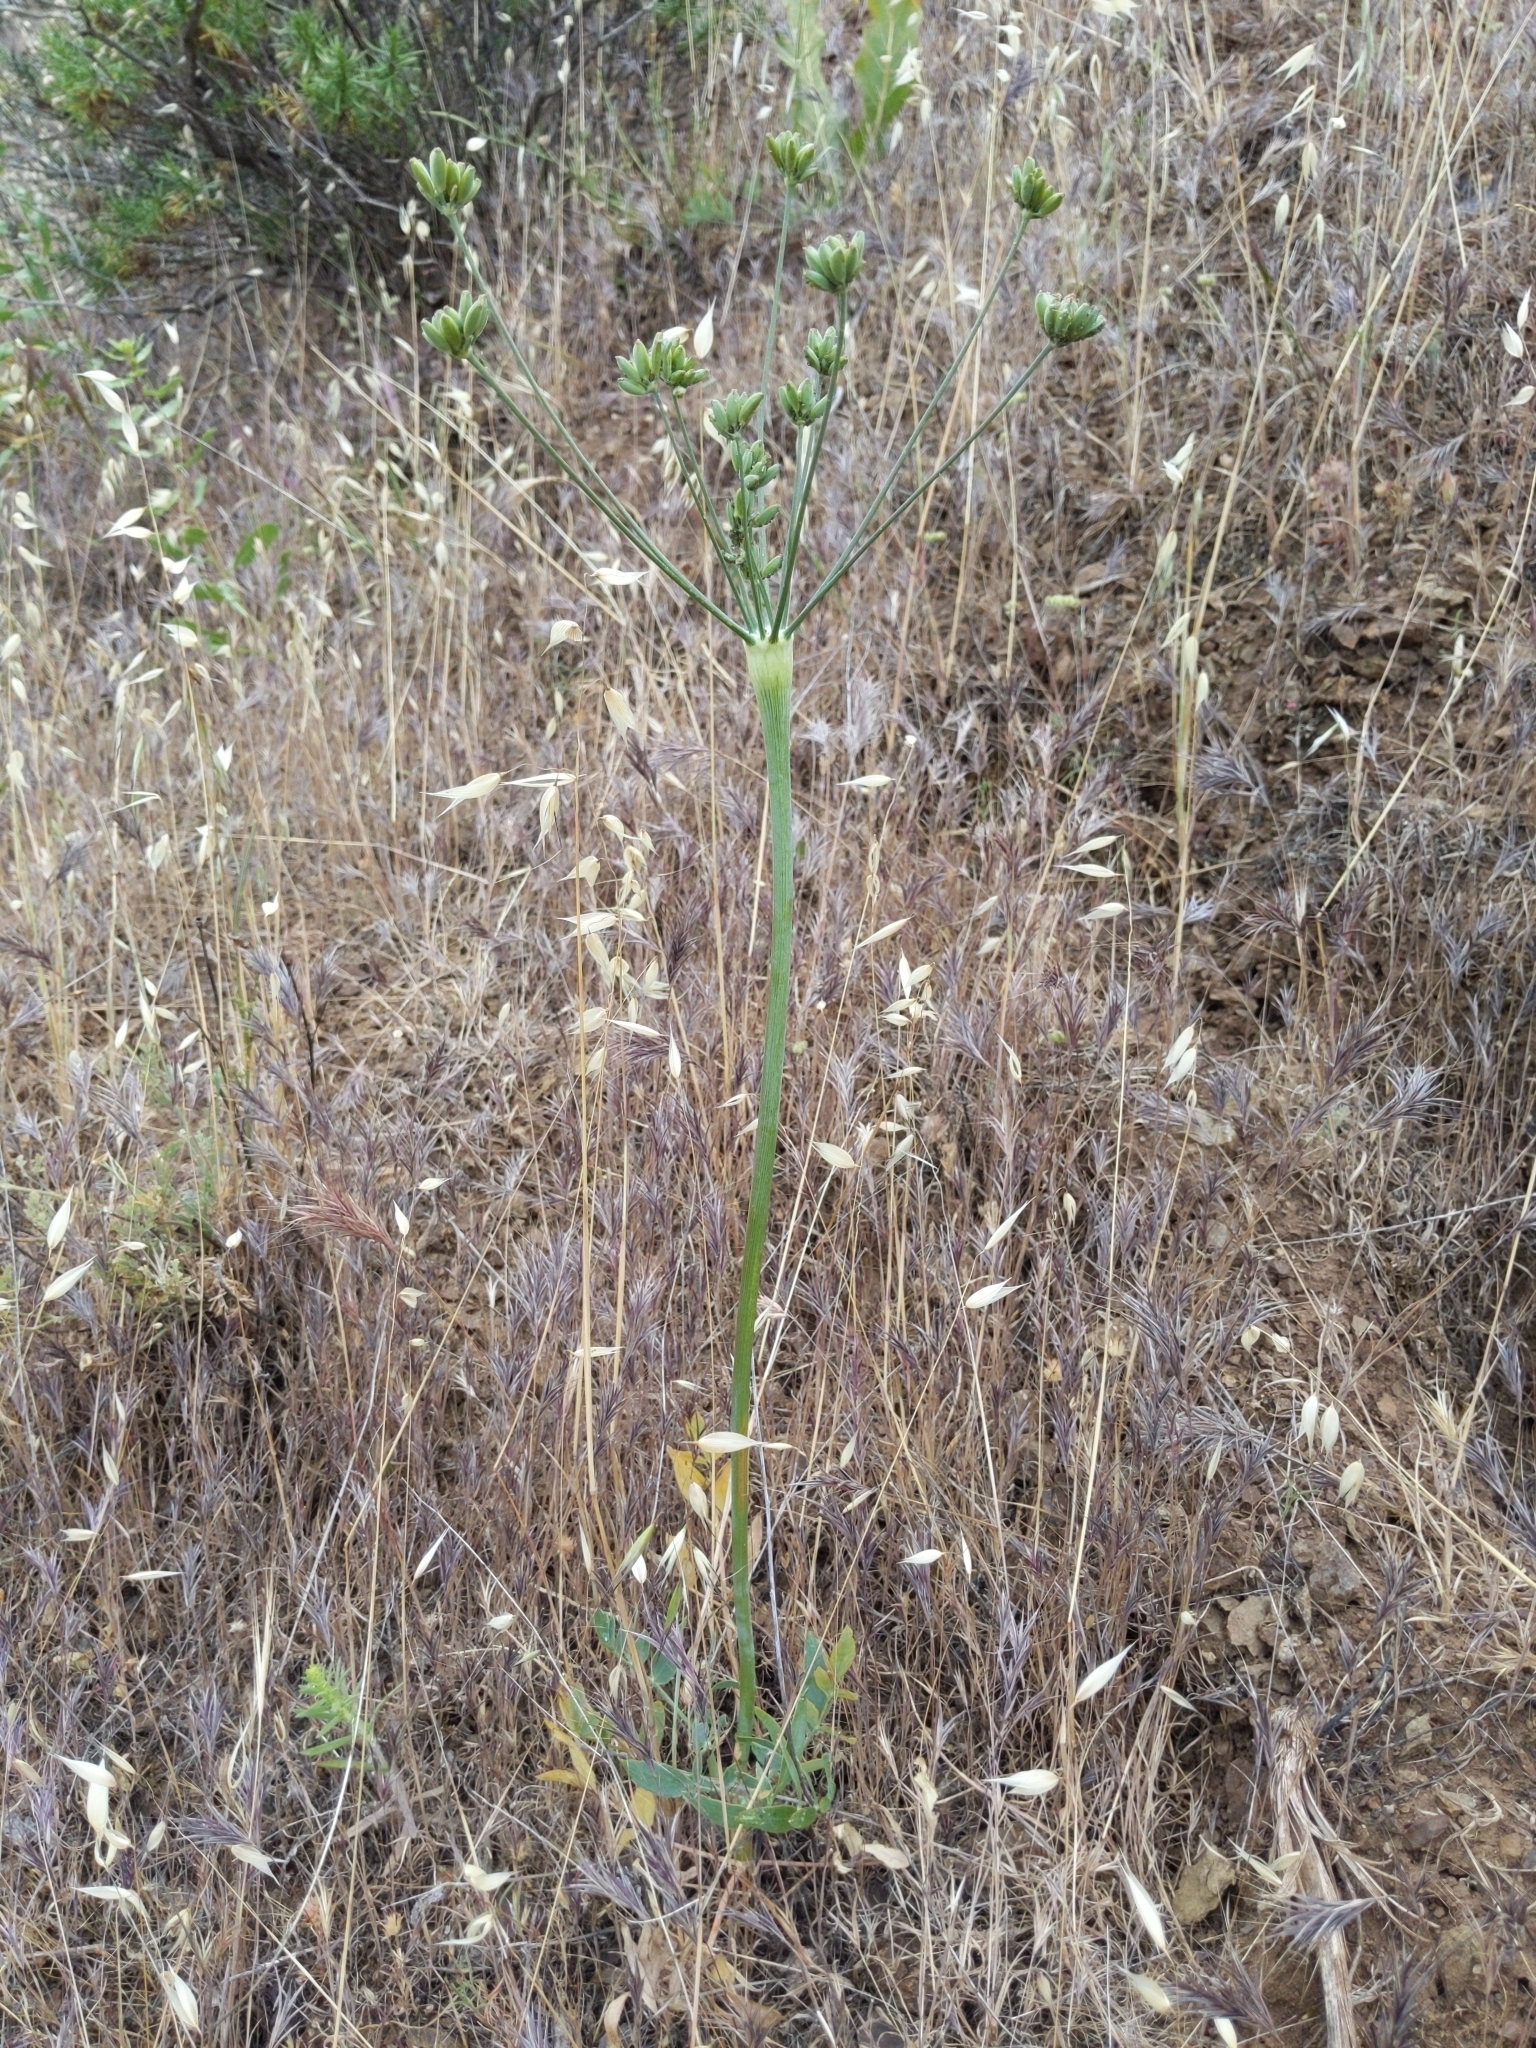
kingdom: Plantae
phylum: Tracheophyta
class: Magnoliopsida
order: Apiales
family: Apiaceae
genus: Lomatium
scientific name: Lomatium nudicaule
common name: Pestle lomatium
